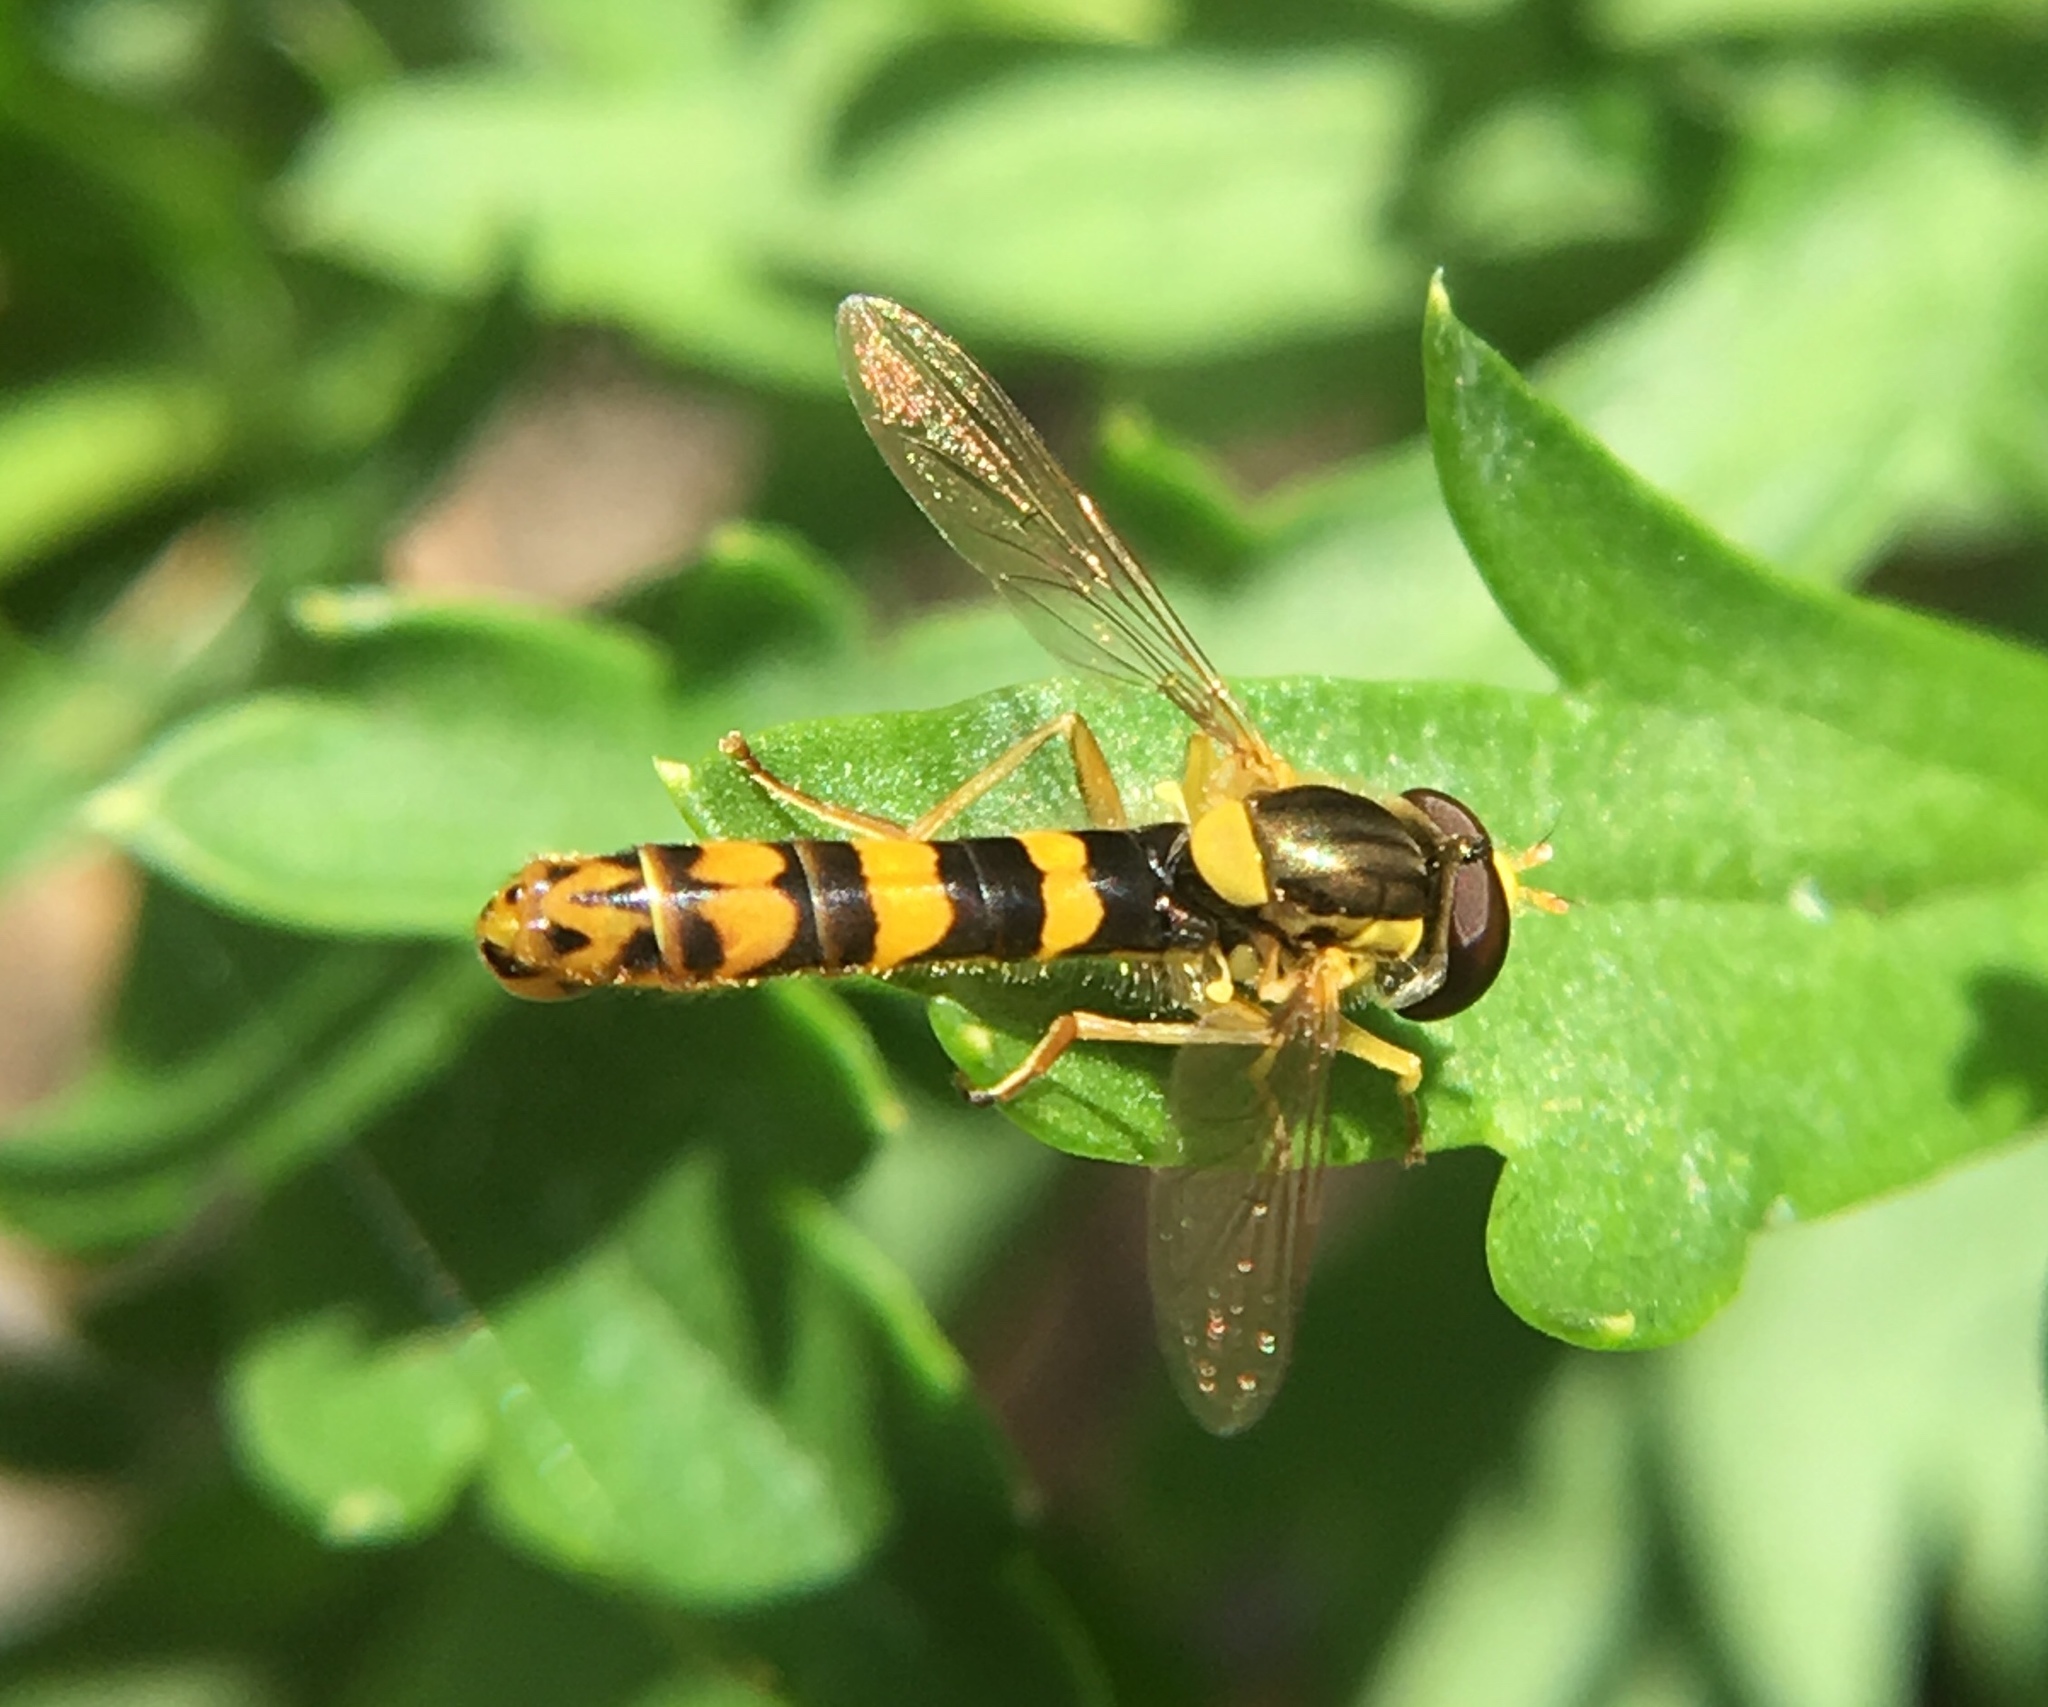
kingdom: Animalia
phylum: Arthropoda
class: Insecta
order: Diptera
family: Syrphidae
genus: Sphaerophoria
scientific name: Sphaerophoria scripta
